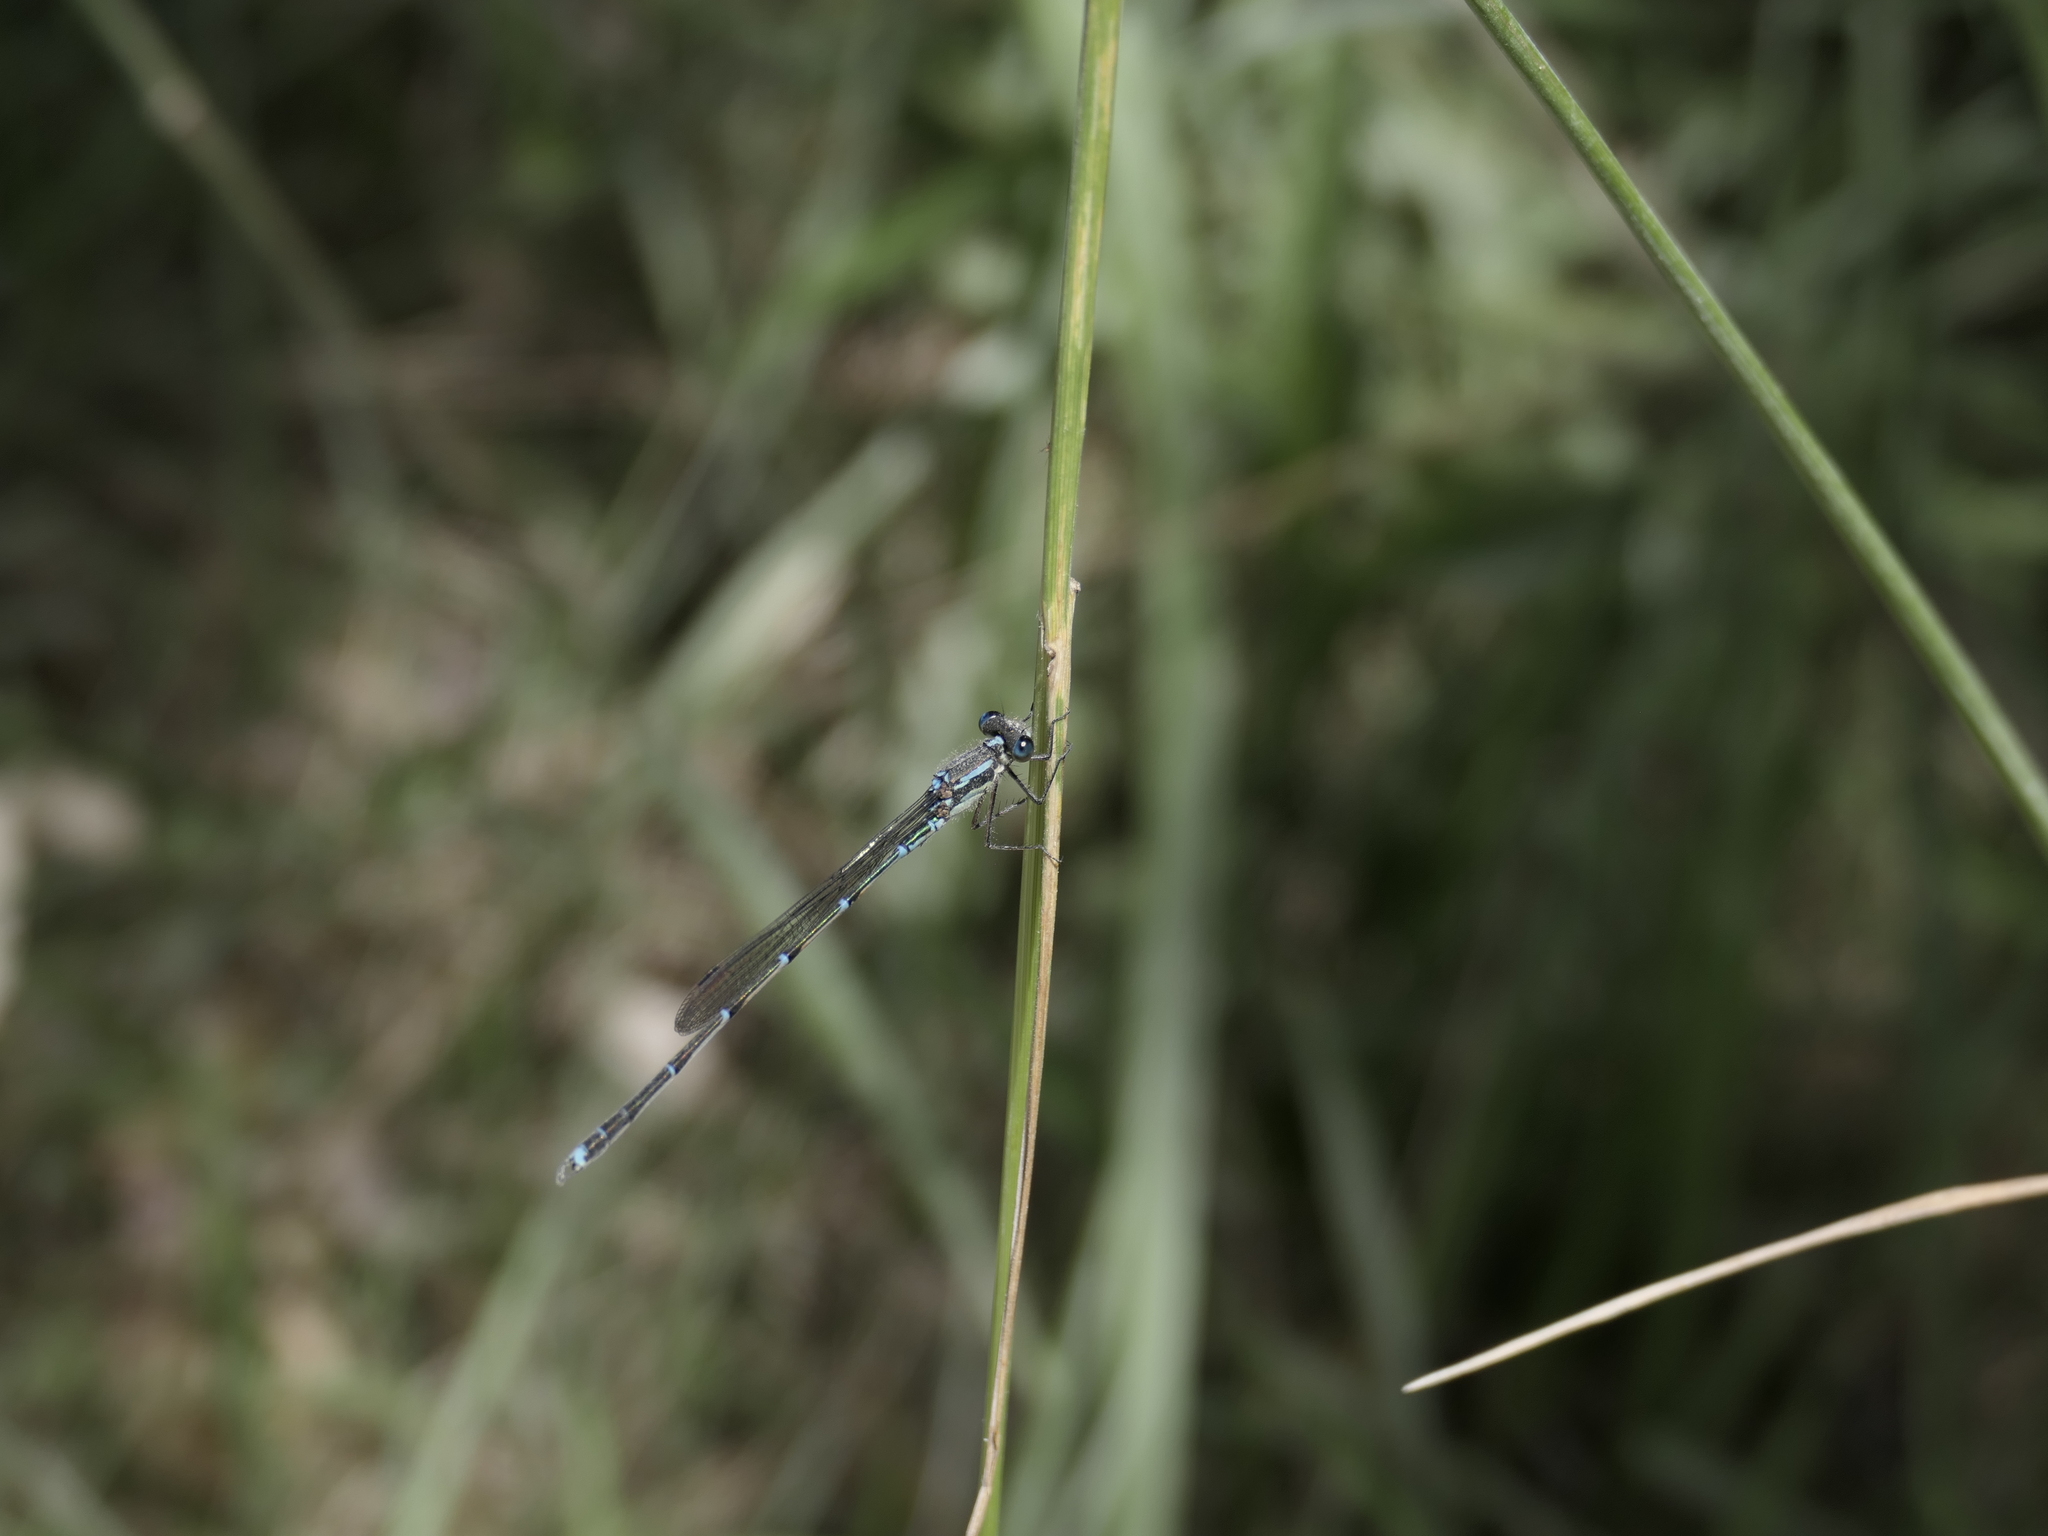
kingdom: Animalia
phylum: Arthropoda
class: Insecta
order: Odonata
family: Lestidae
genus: Austrolestes
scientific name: Austrolestes colensonis
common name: Blue damselfly
